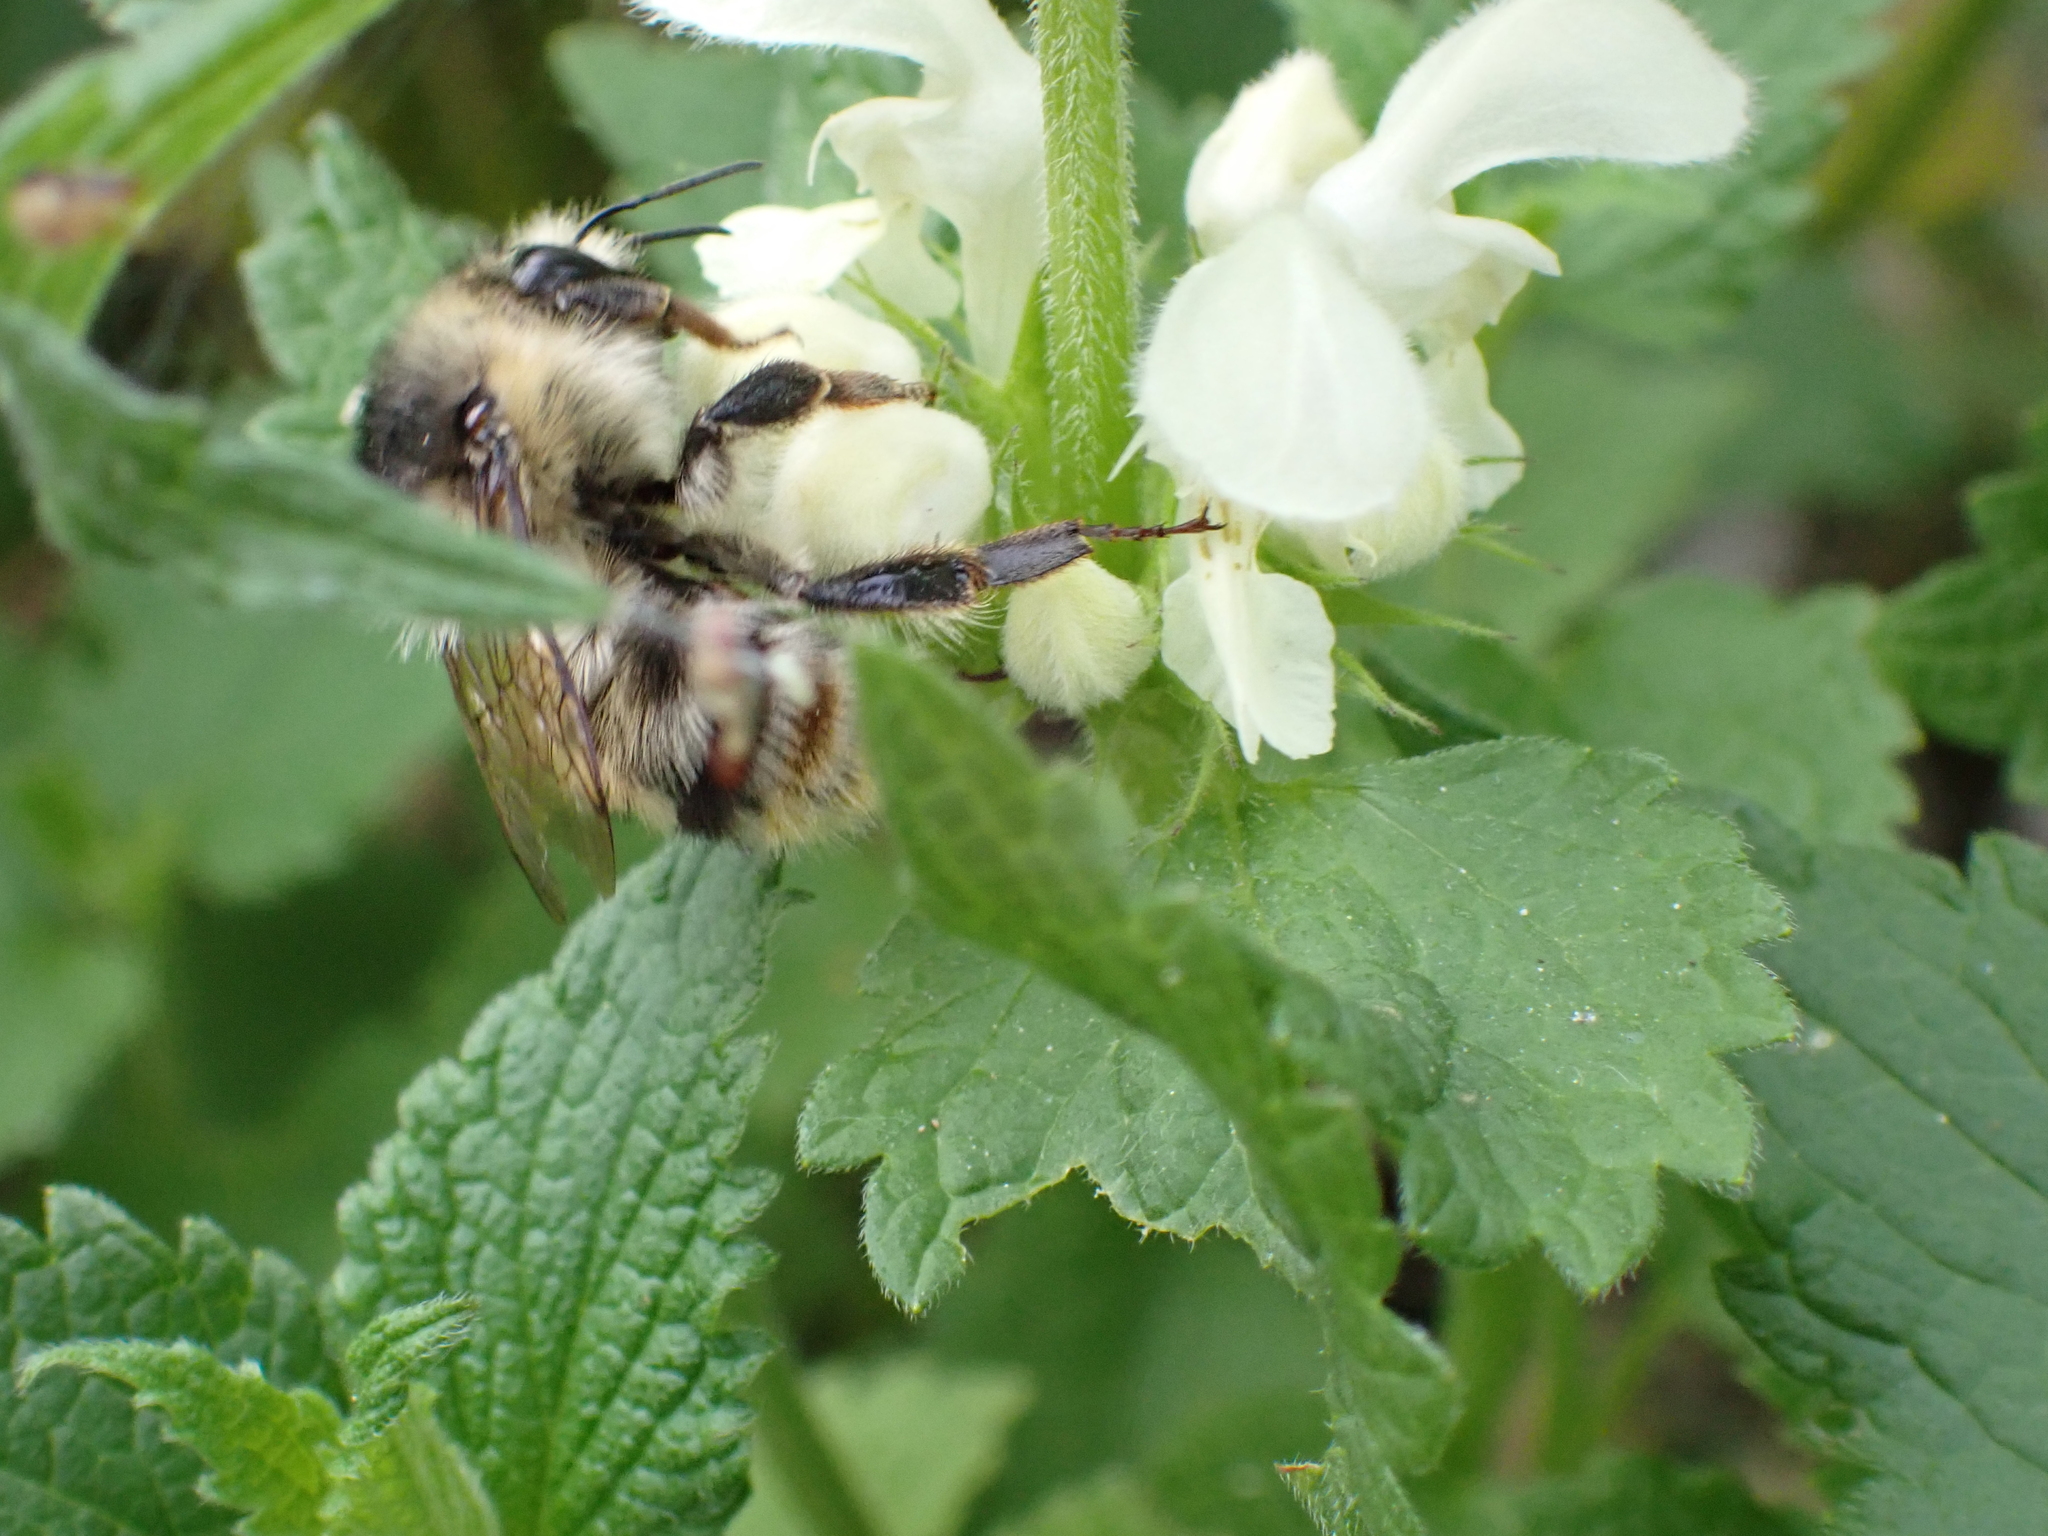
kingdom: Animalia
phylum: Arthropoda
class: Insecta
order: Hymenoptera
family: Apidae
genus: Bombus
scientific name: Bombus sylvarum
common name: Shrill carder bee
